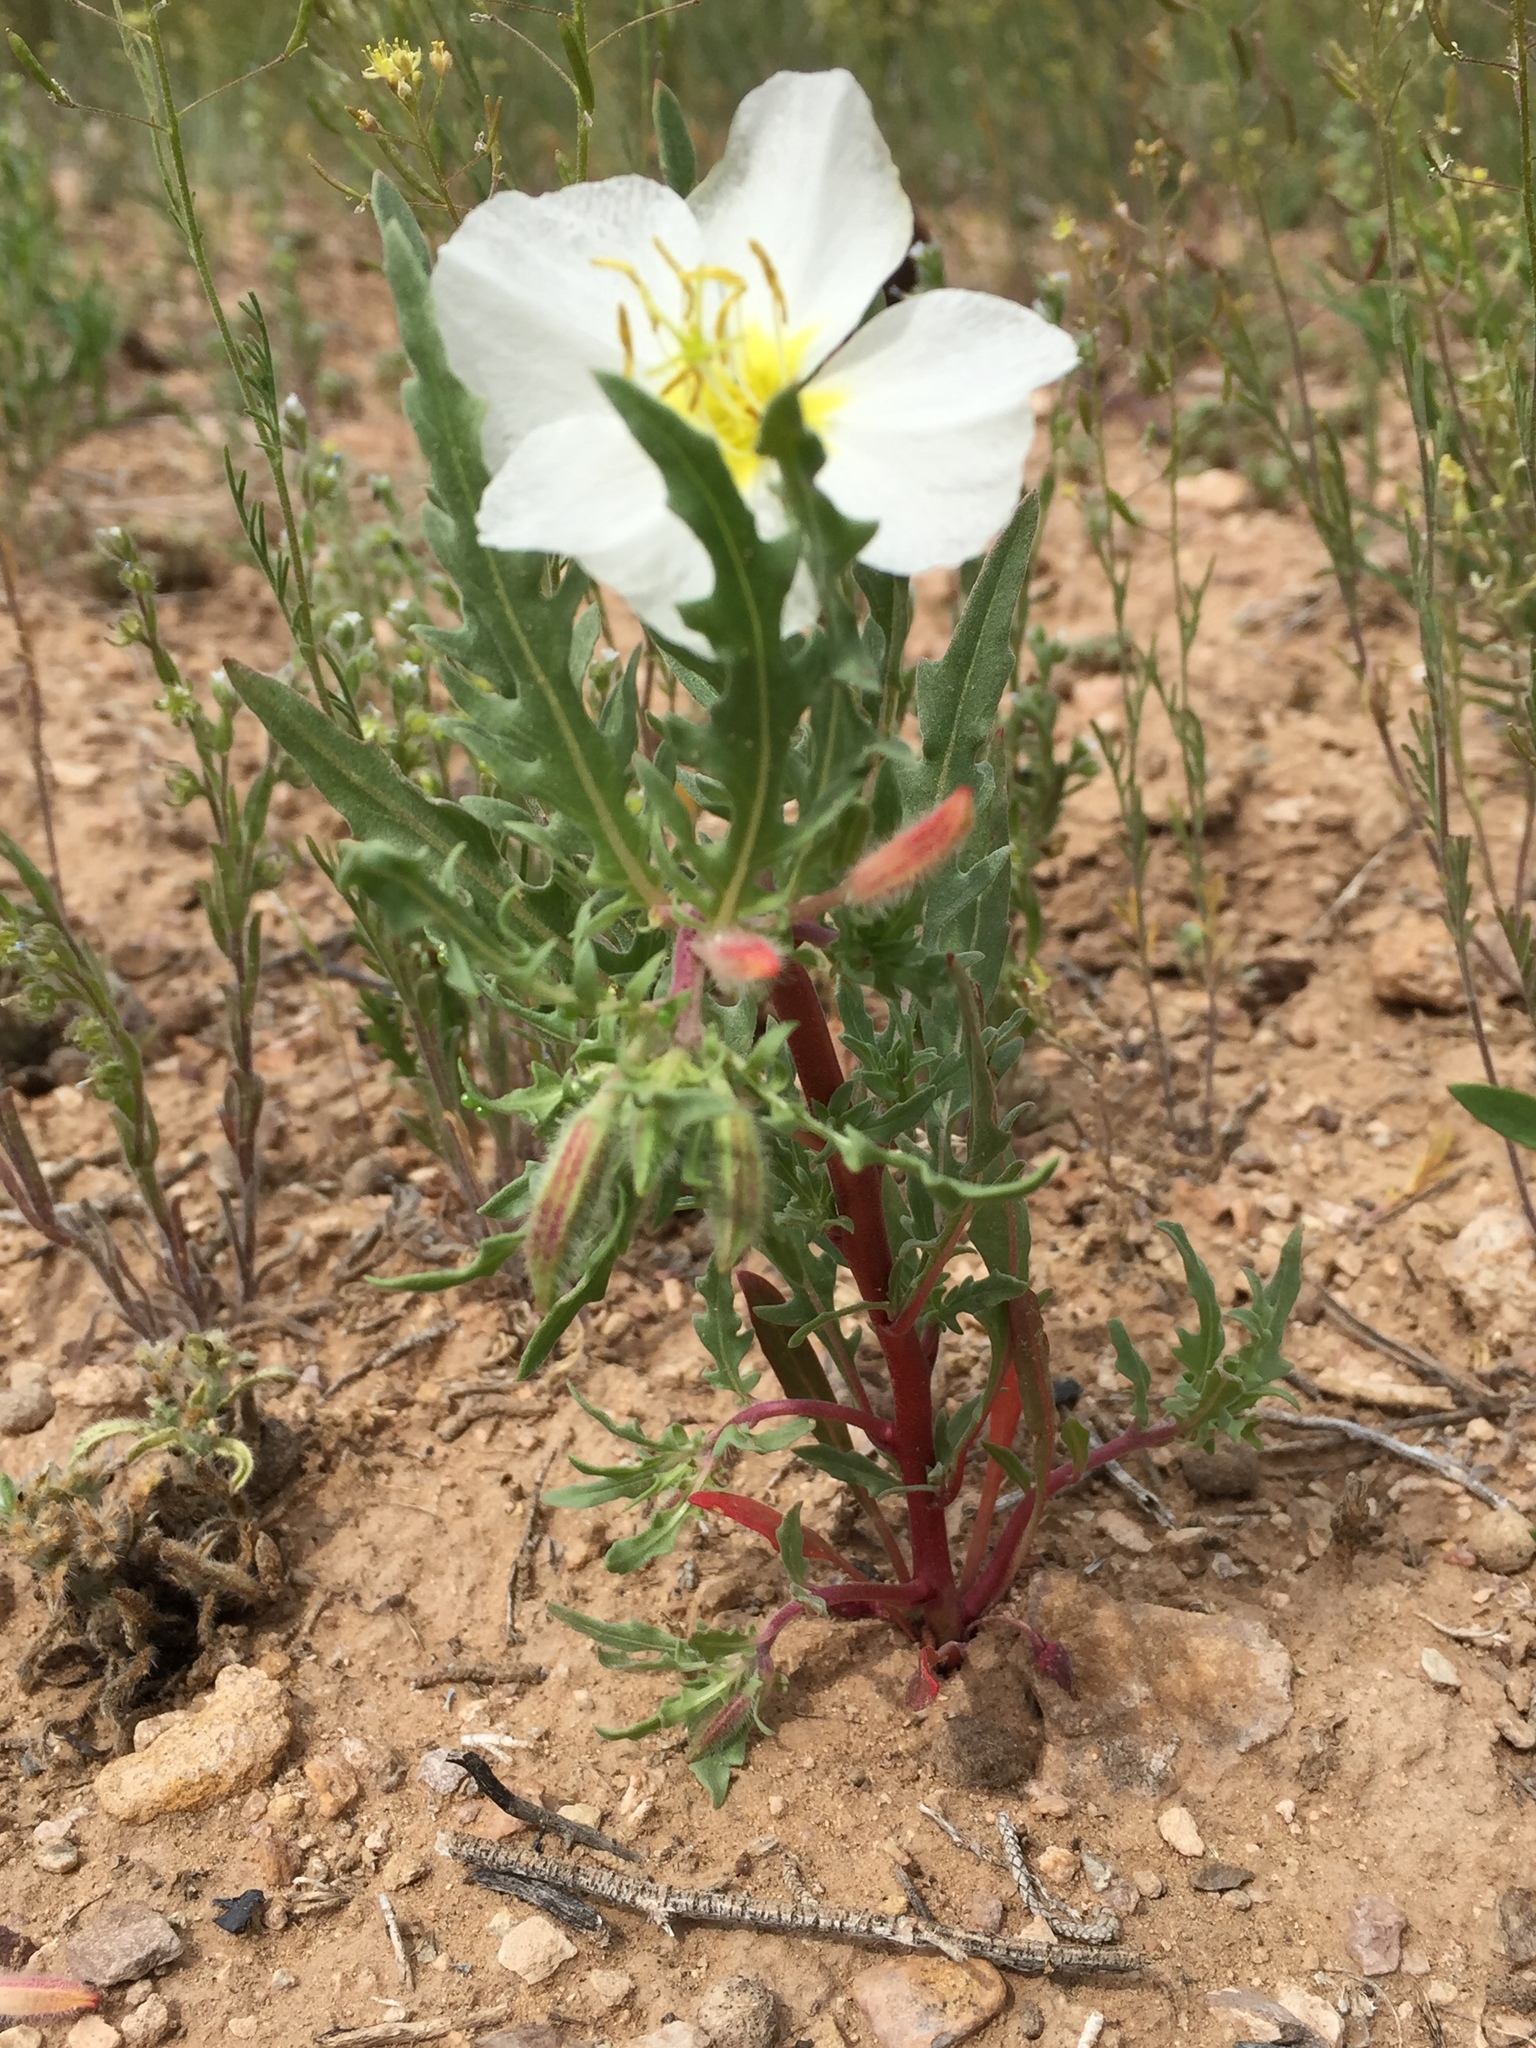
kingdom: Plantae
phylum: Tracheophyta
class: Magnoliopsida
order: Myrtales
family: Onagraceae
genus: Oenothera
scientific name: Oenothera pallida
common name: Pale evening-primrose
